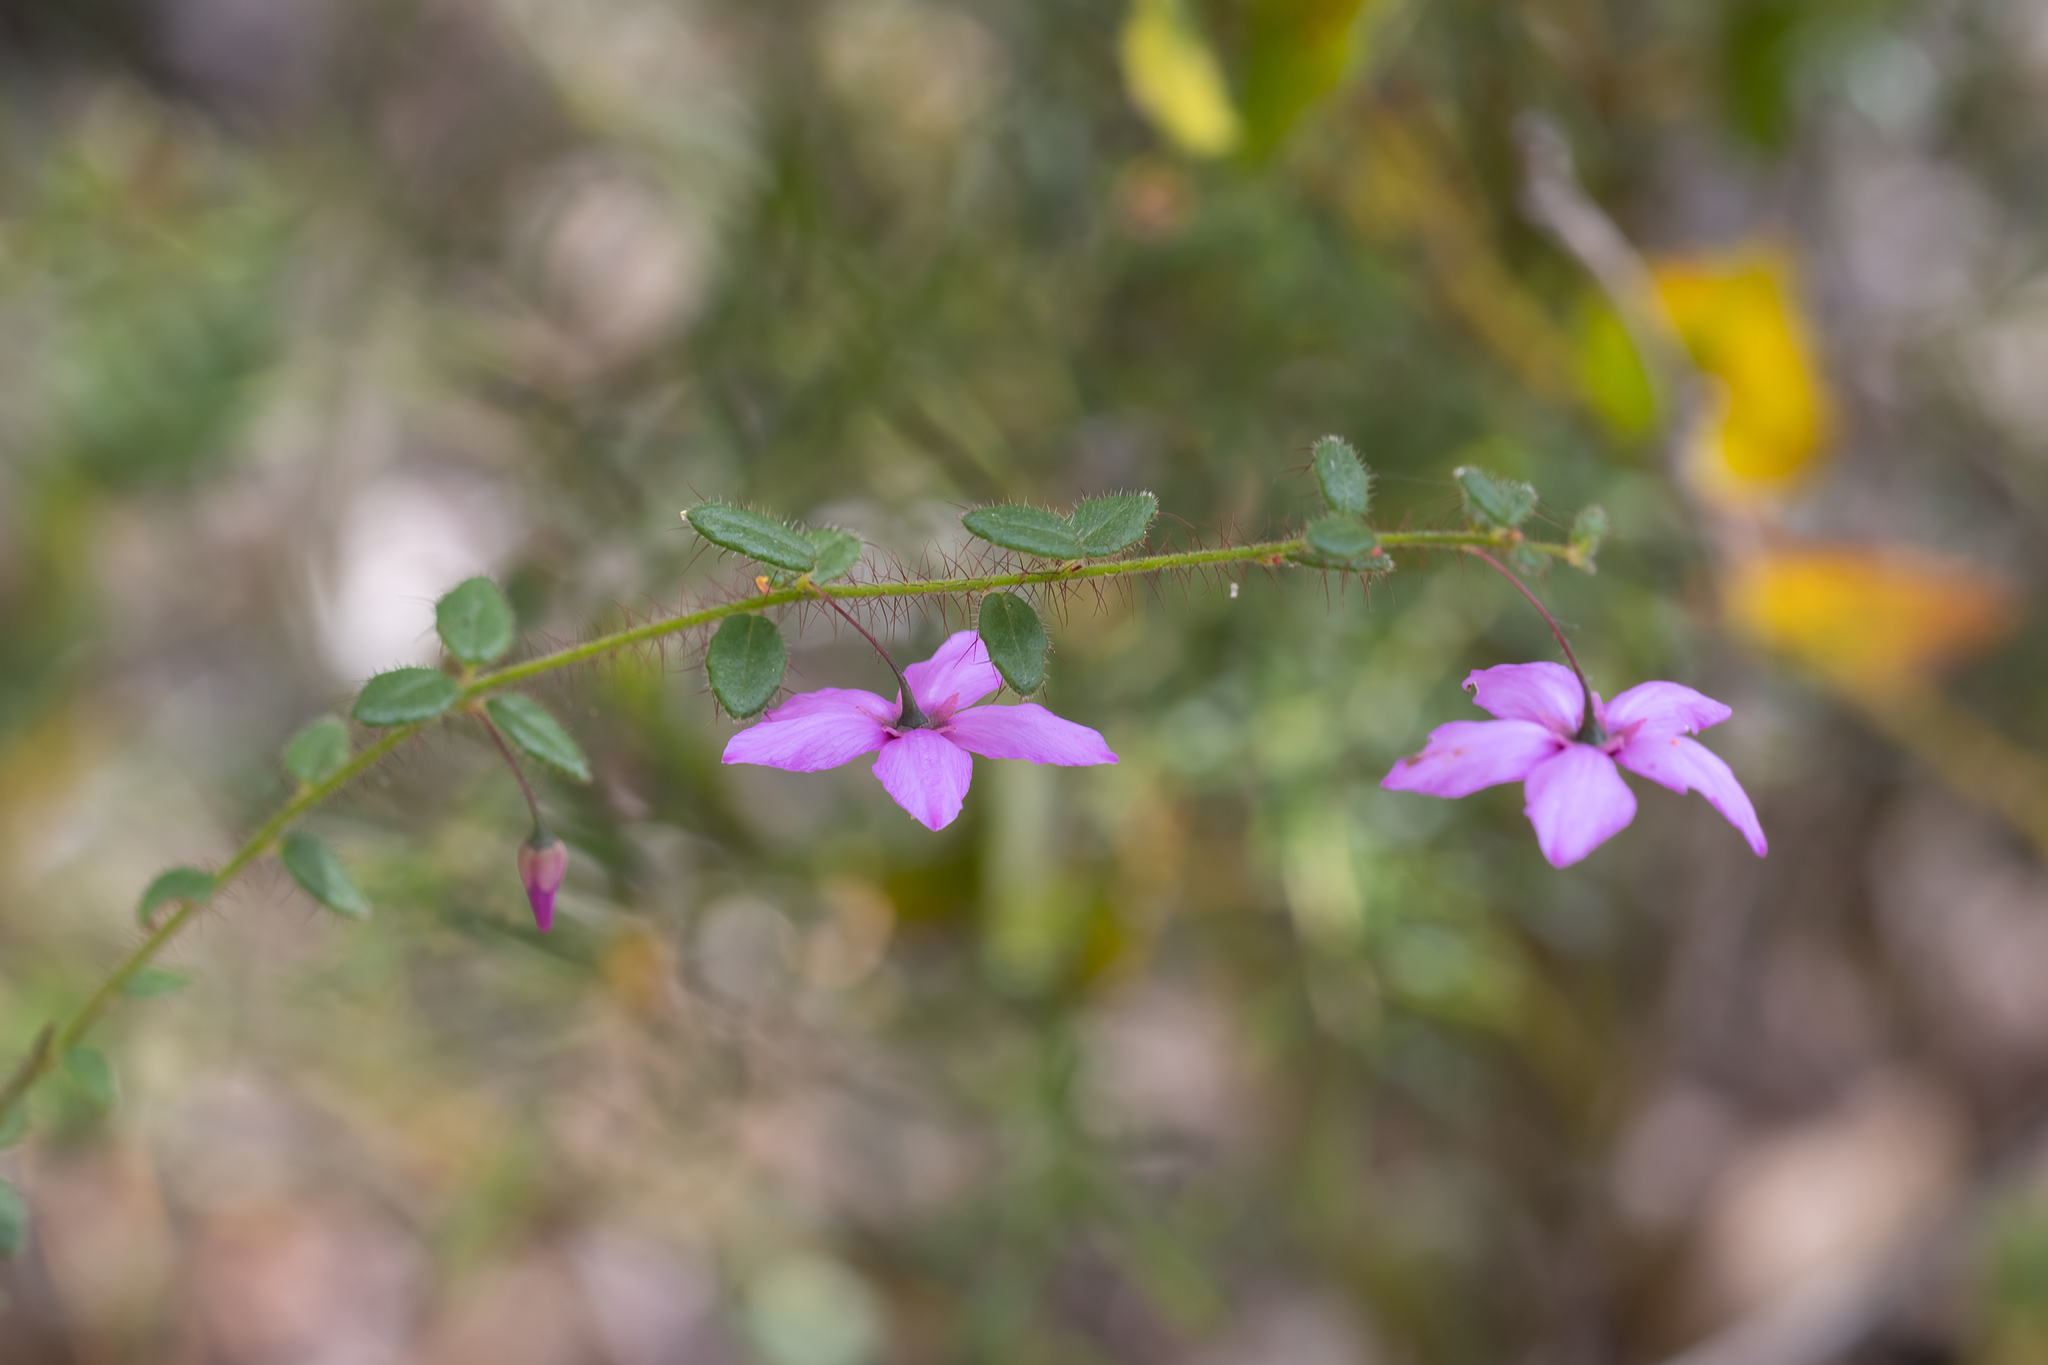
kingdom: Plantae
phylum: Tracheophyta
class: Magnoliopsida
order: Oxalidales
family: Elaeocarpaceae
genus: Tetratheca
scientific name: Tetratheca hispidissima
